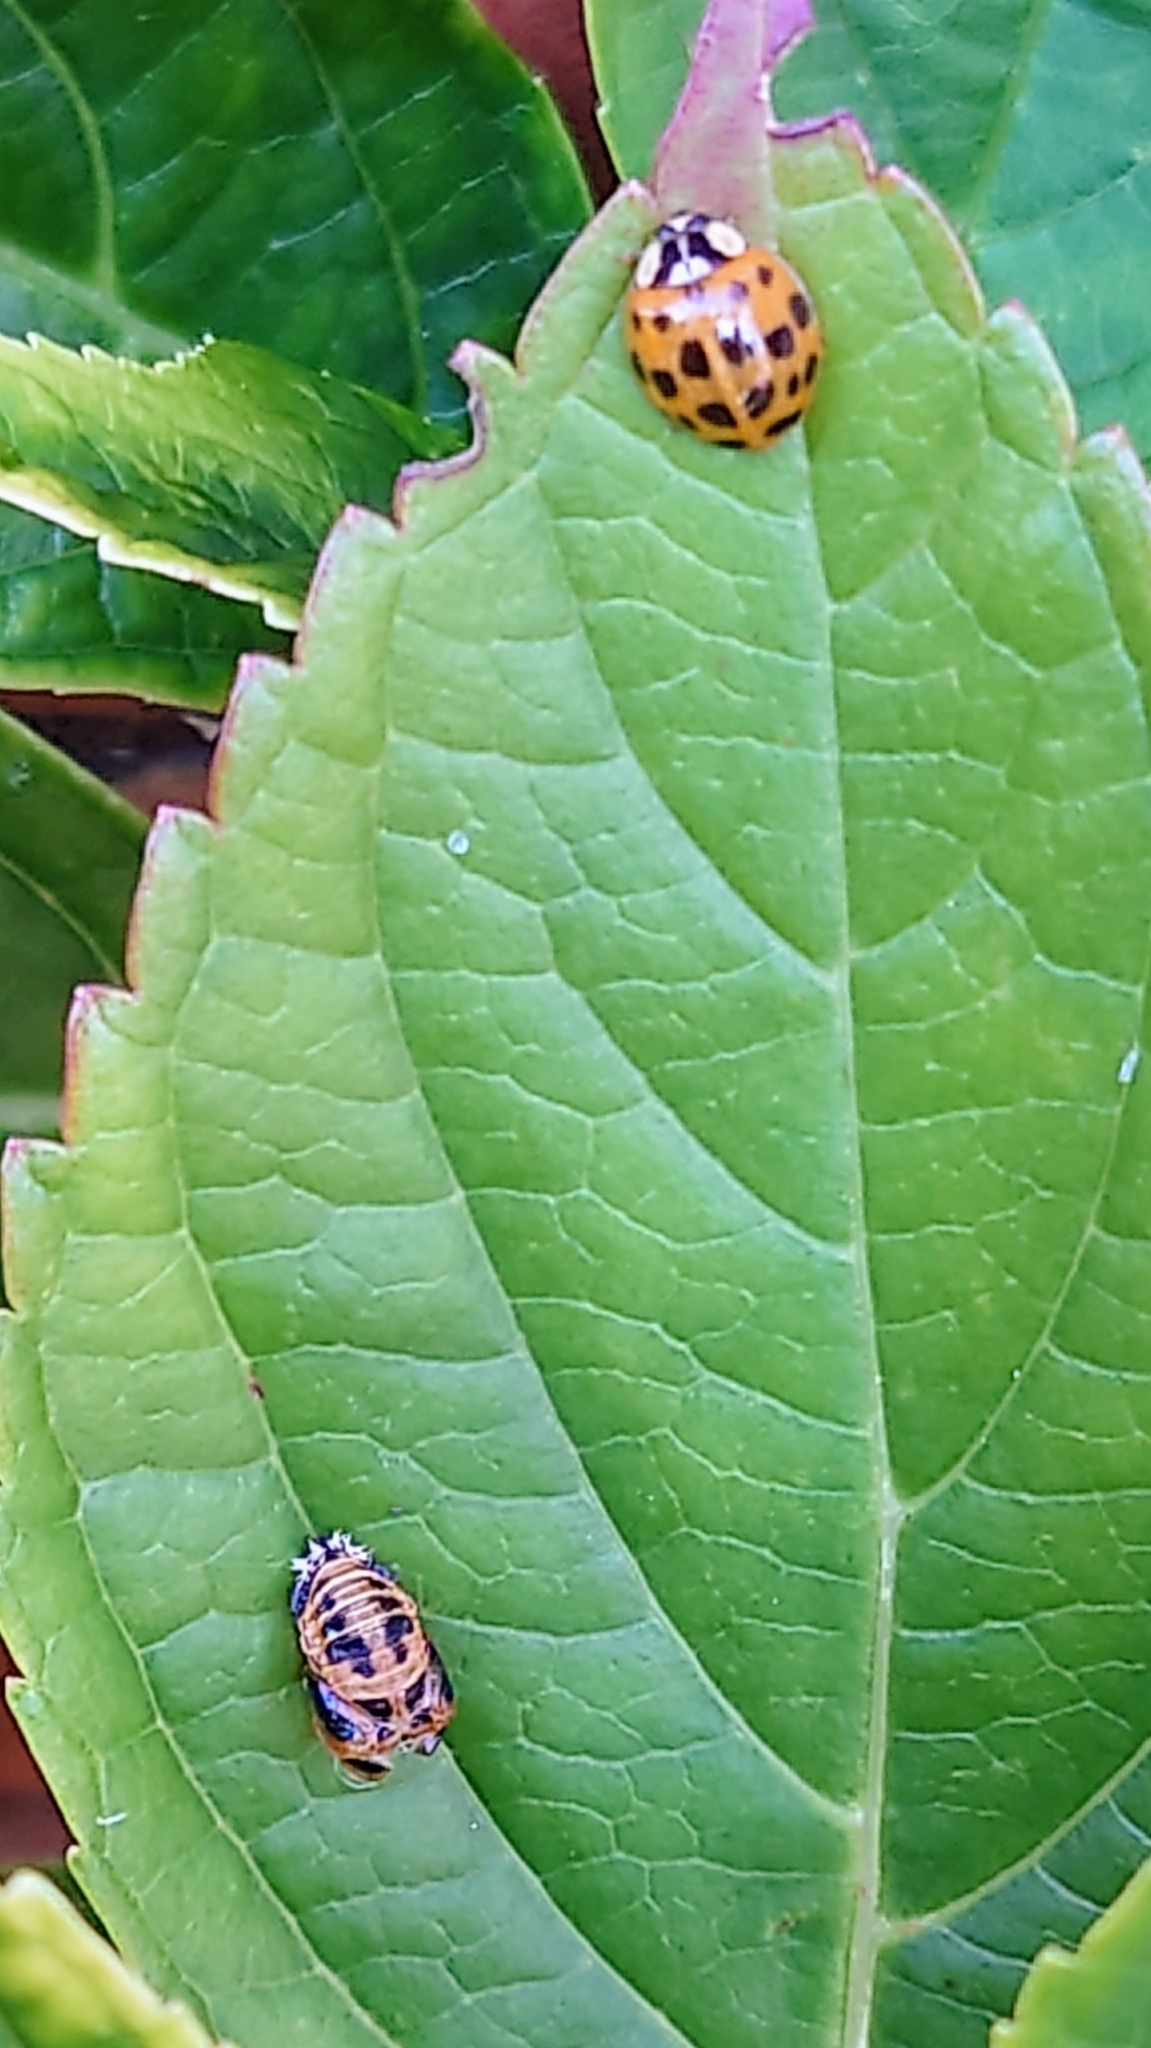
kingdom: Animalia
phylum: Arthropoda
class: Insecta
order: Coleoptera
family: Coccinellidae
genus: Harmonia
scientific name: Harmonia axyridis
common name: Harlequin ladybird
